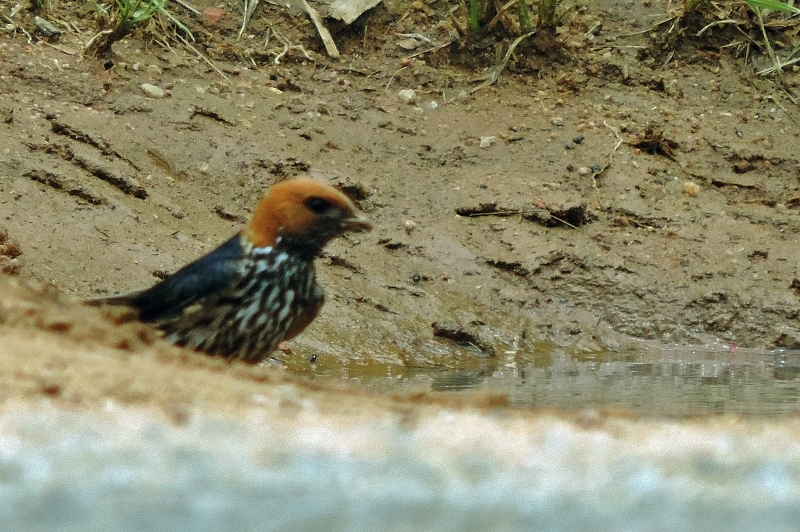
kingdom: Animalia
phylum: Chordata
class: Aves
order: Passeriformes
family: Hirundinidae
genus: Cecropis
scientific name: Cecropis abyssinica
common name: Lesser striped-swallow
